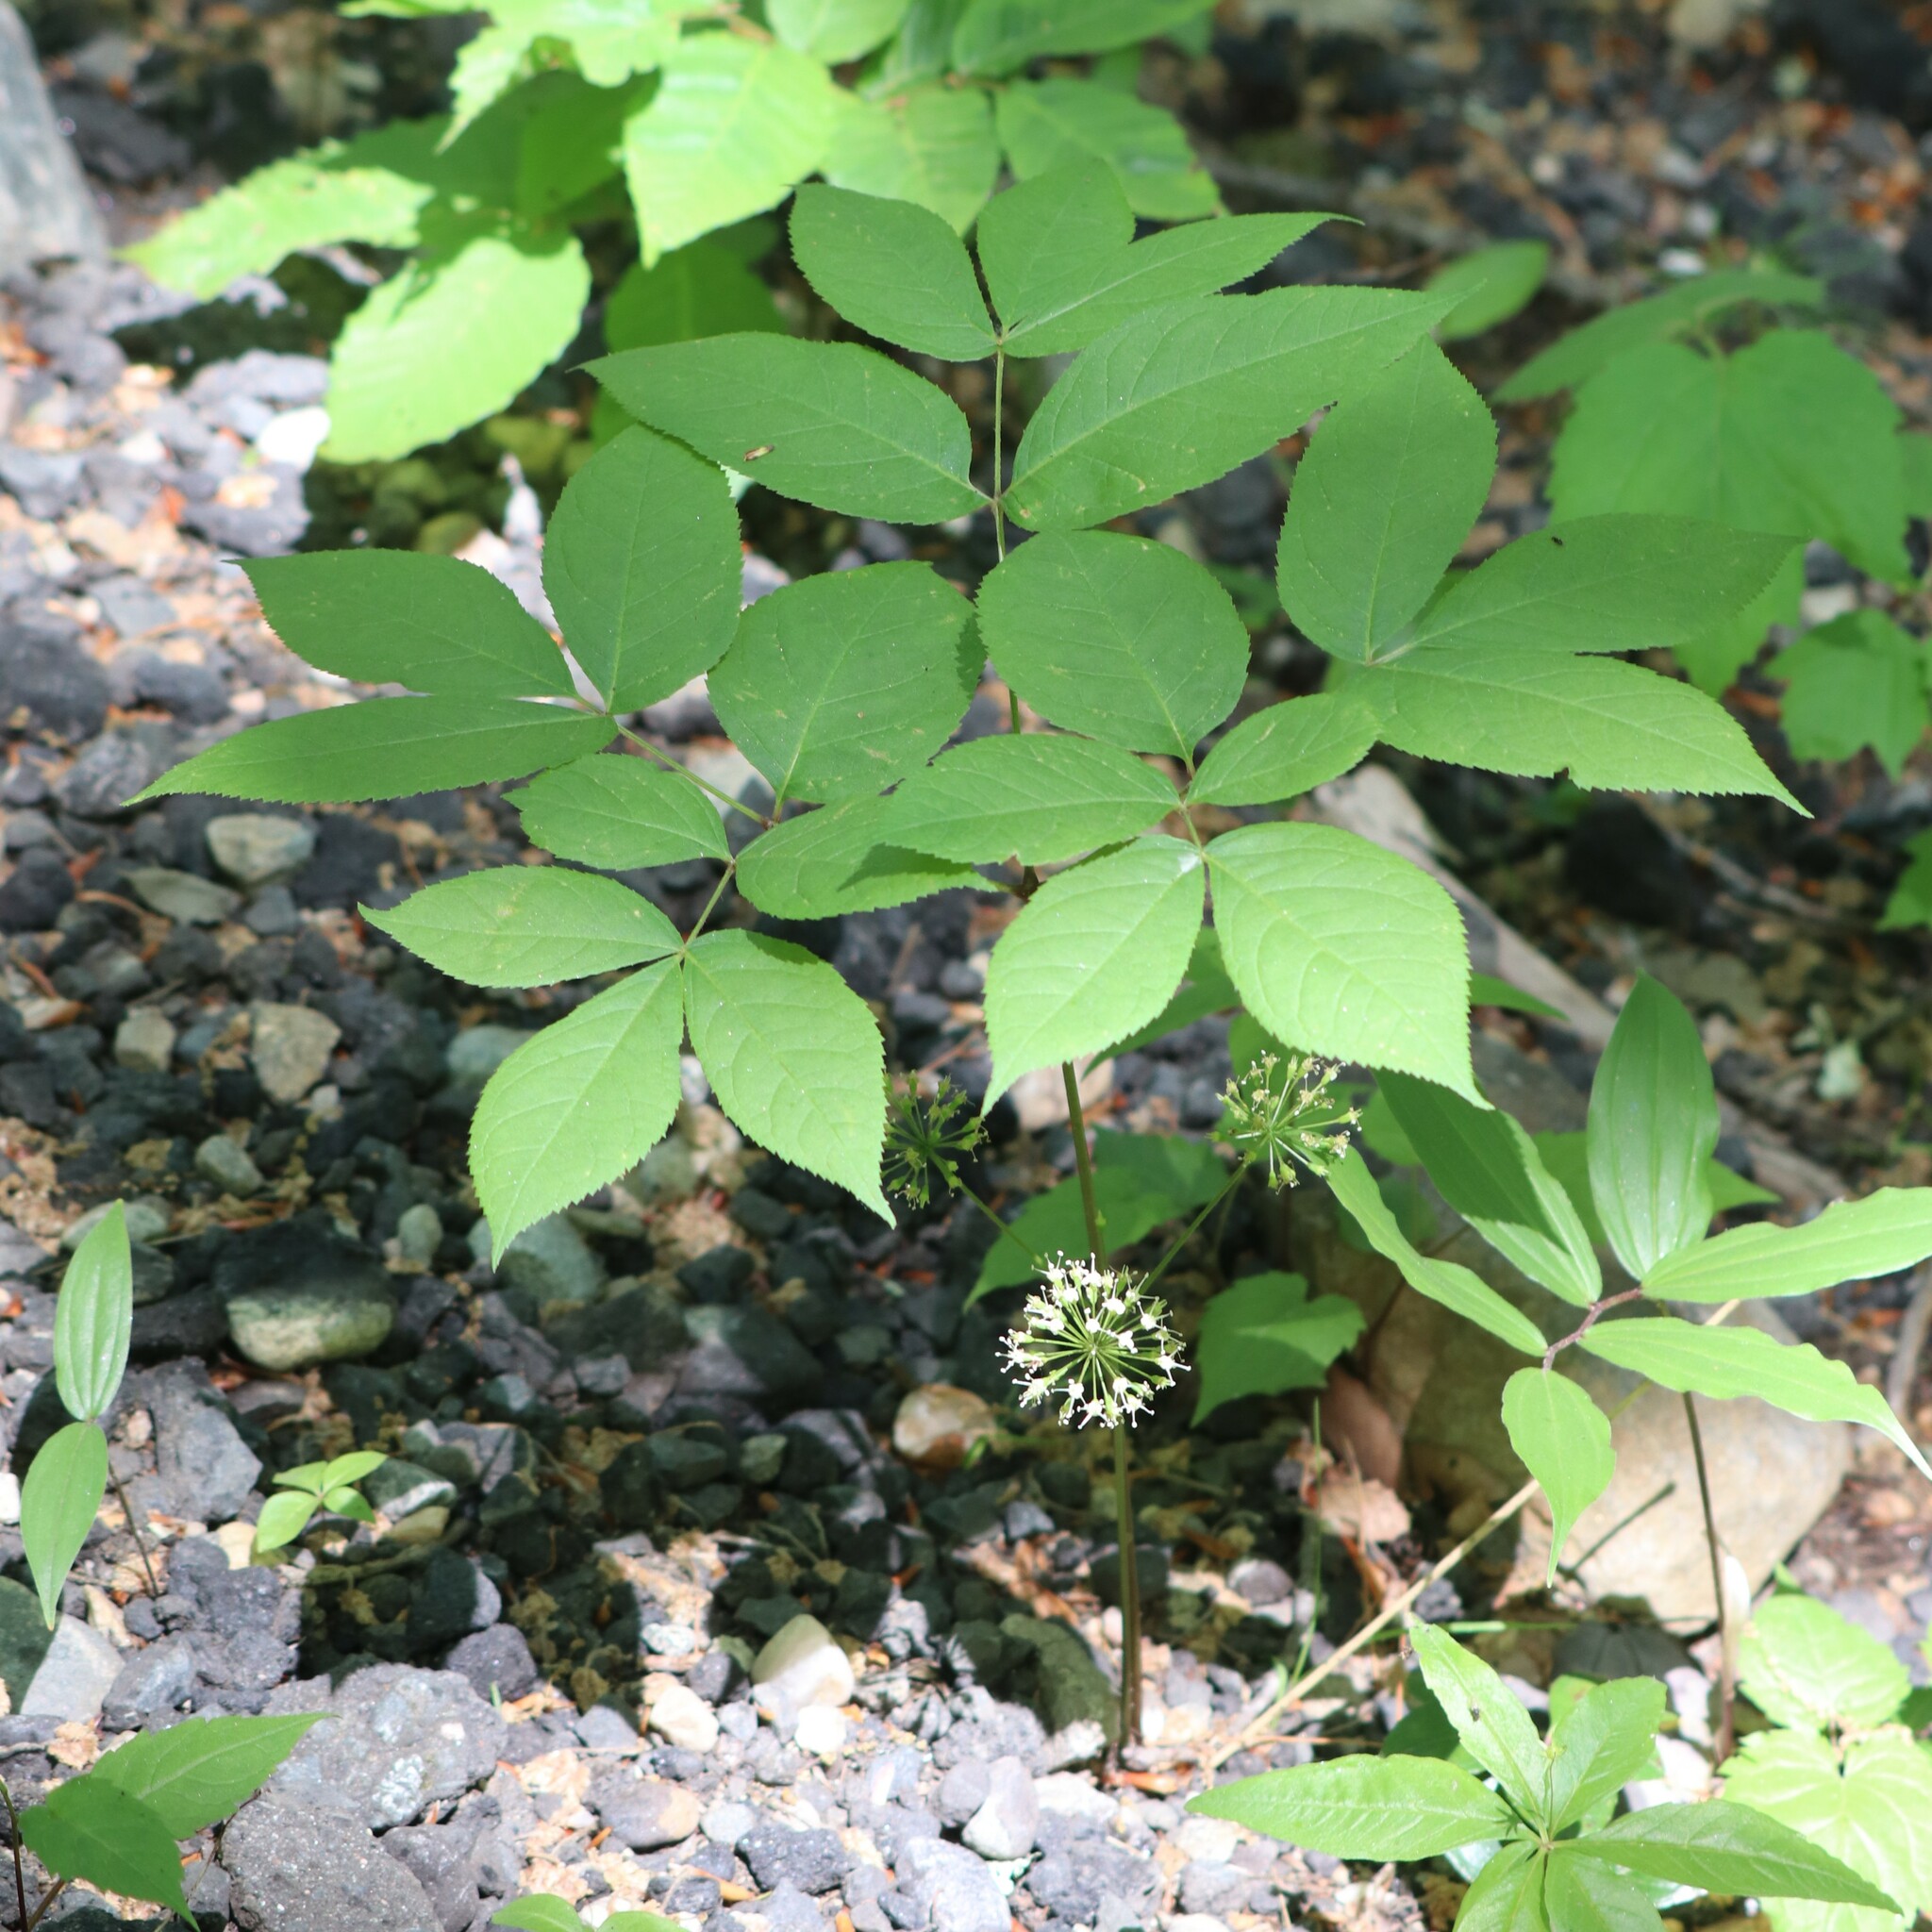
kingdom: Plantae
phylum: Tracheophyta
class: Magnoliopsida
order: Apiales
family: Araliaceae
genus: Aralia
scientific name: Aralia nudicaulis
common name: Wild sarsaparilla
